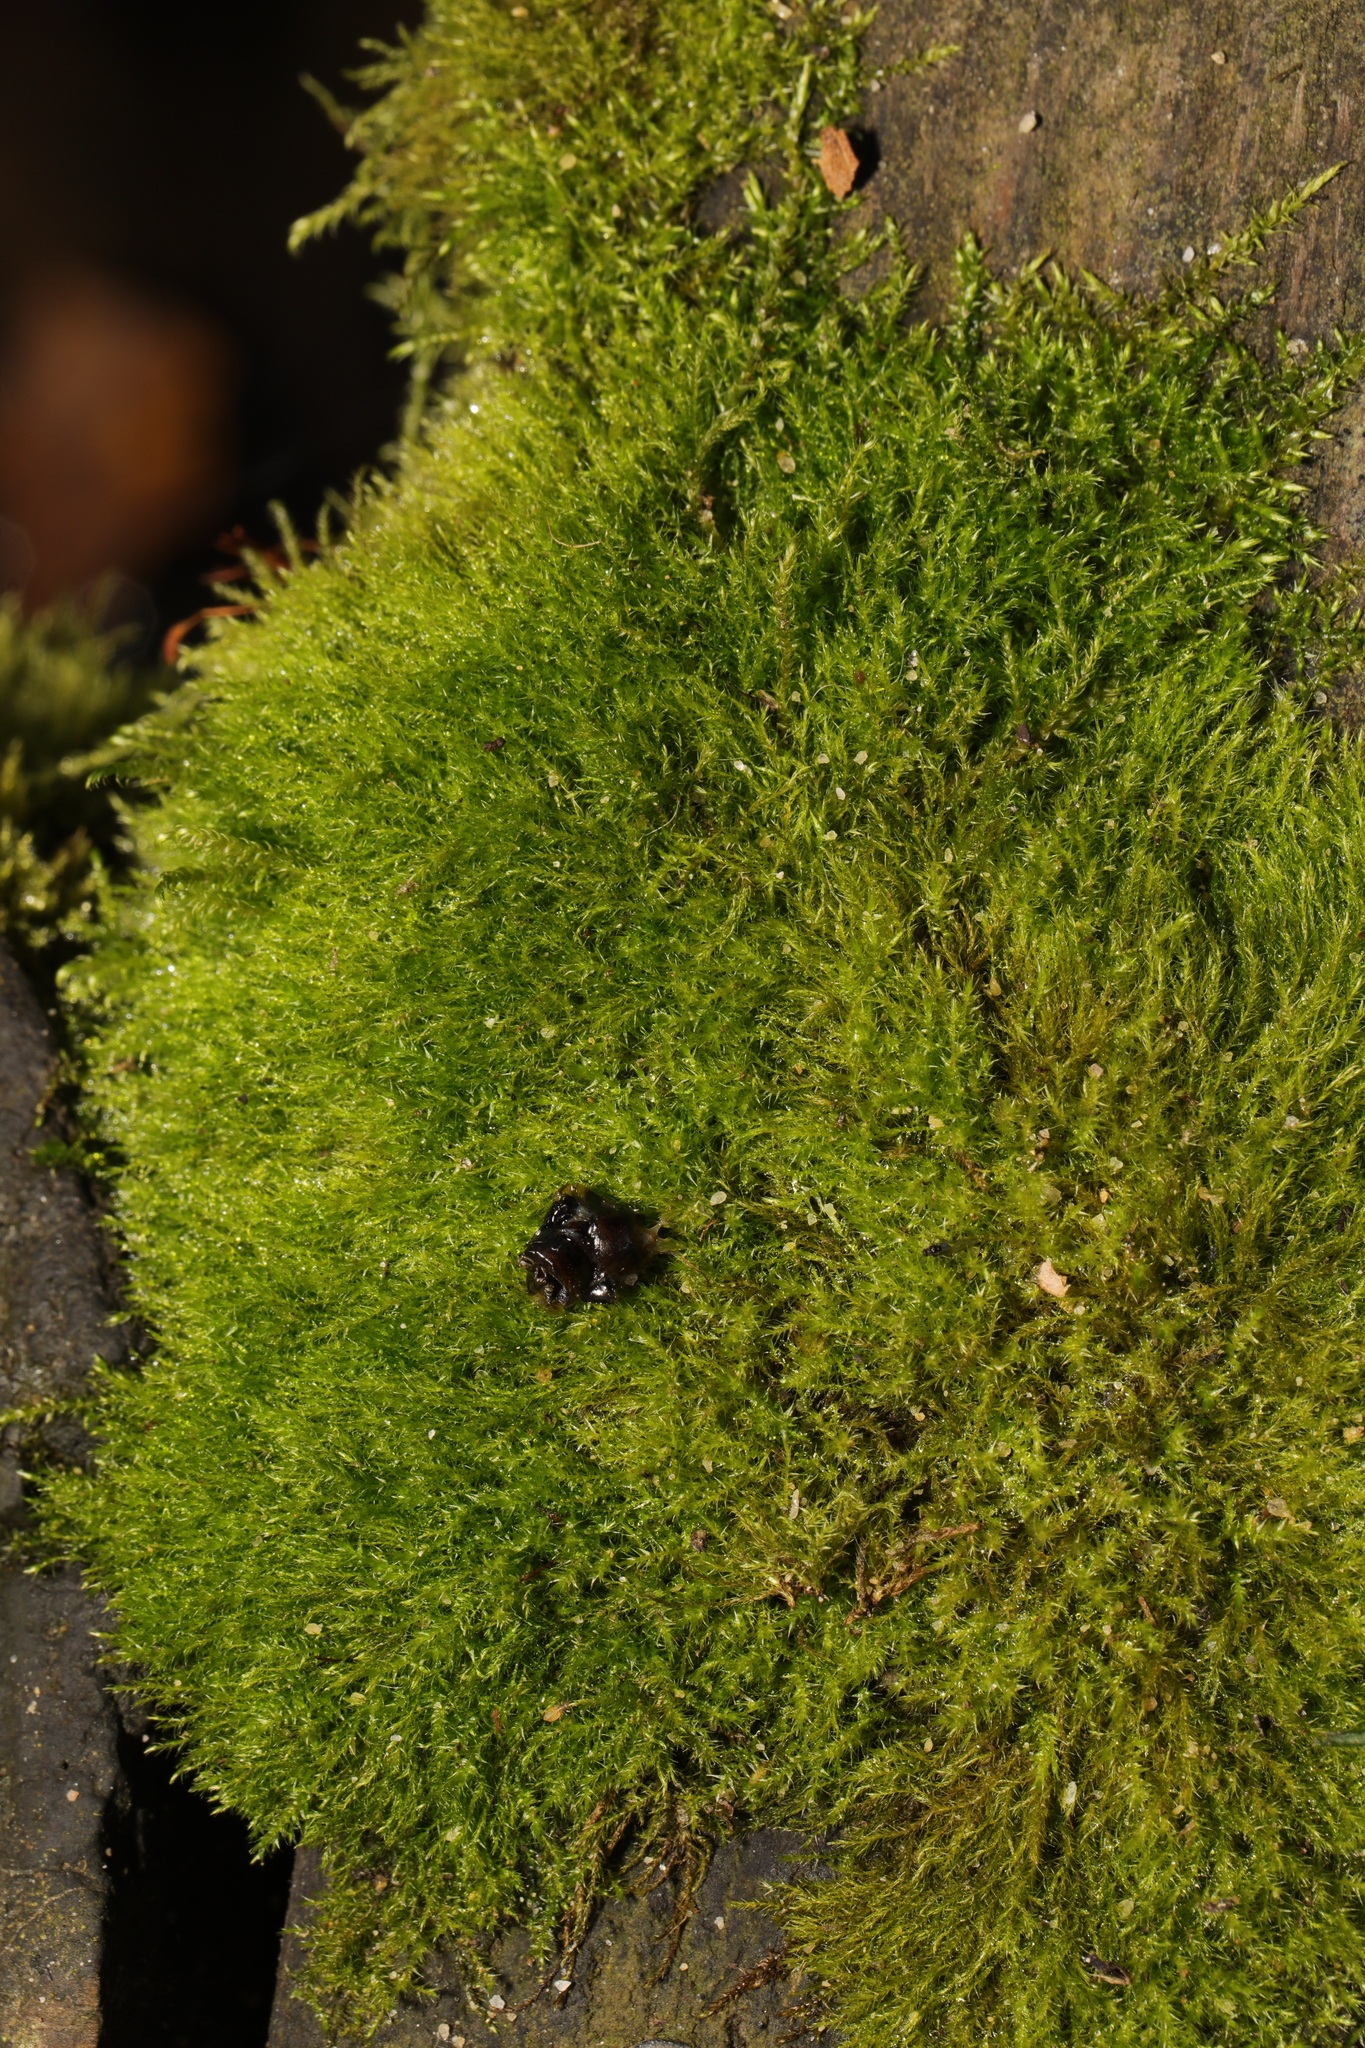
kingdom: Plantae
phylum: Bryophyta
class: Bryopsida
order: Hypnales
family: Amblystegiaceae
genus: Amblystegium
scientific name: Amblystegium serpens
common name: Jurkatzka's feather moss
